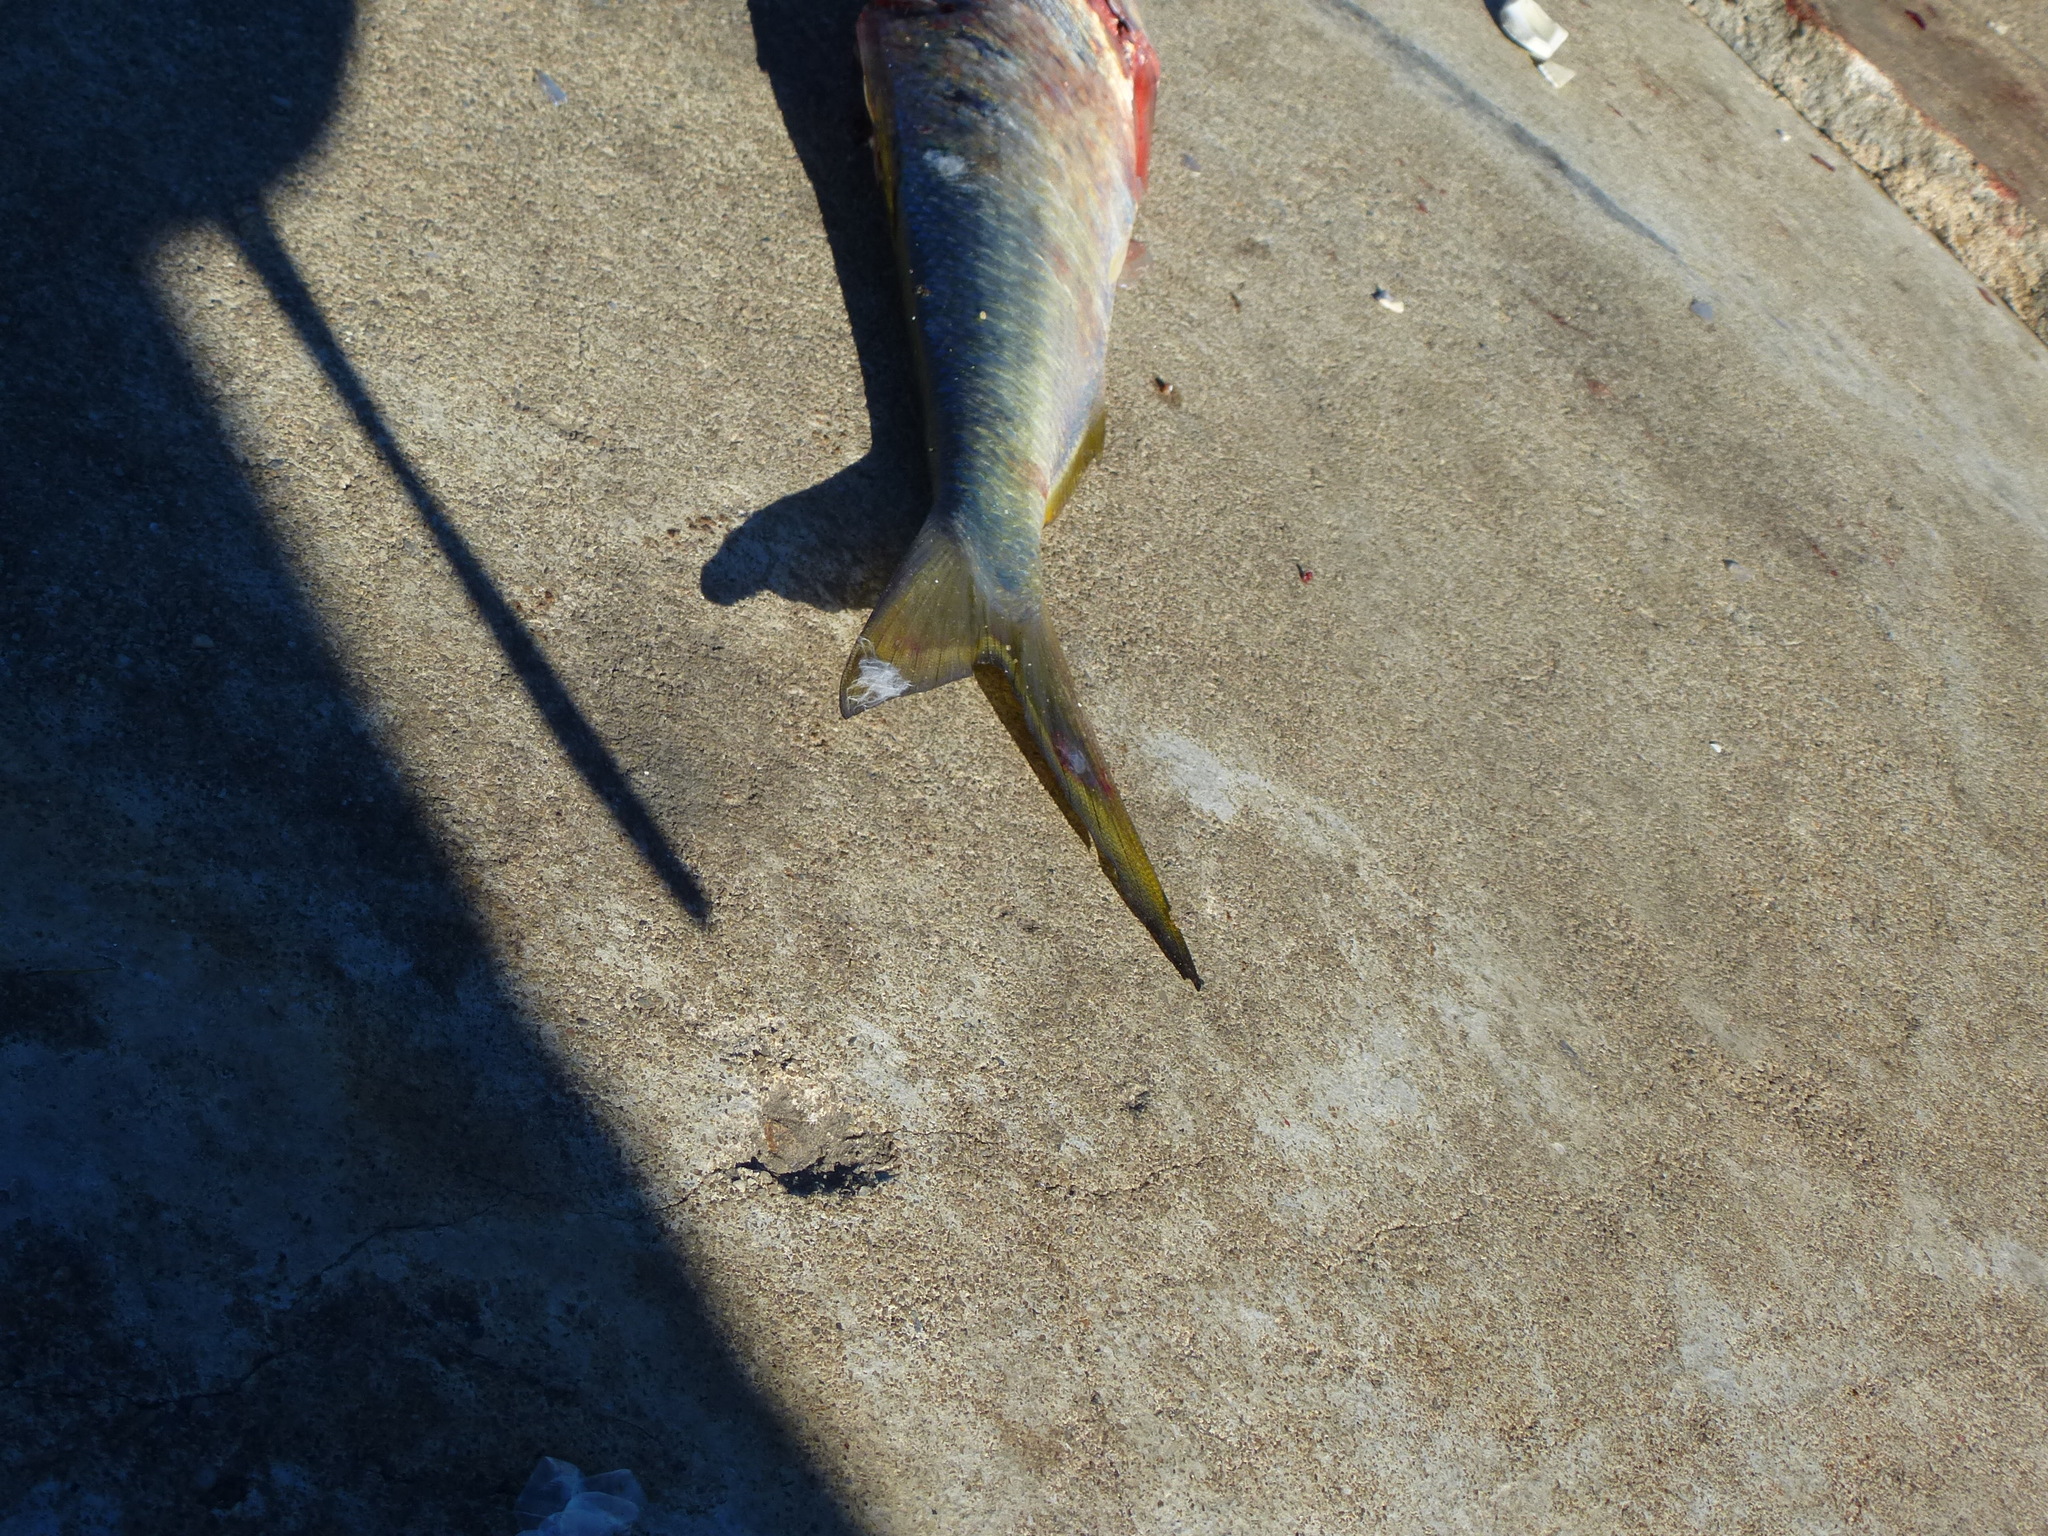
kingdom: Animalia
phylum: Chordata
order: Clupeiformes
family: Clupeidae
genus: Brevoortia
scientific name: Brevoortia tyrannus
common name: Atlantic menhaden
